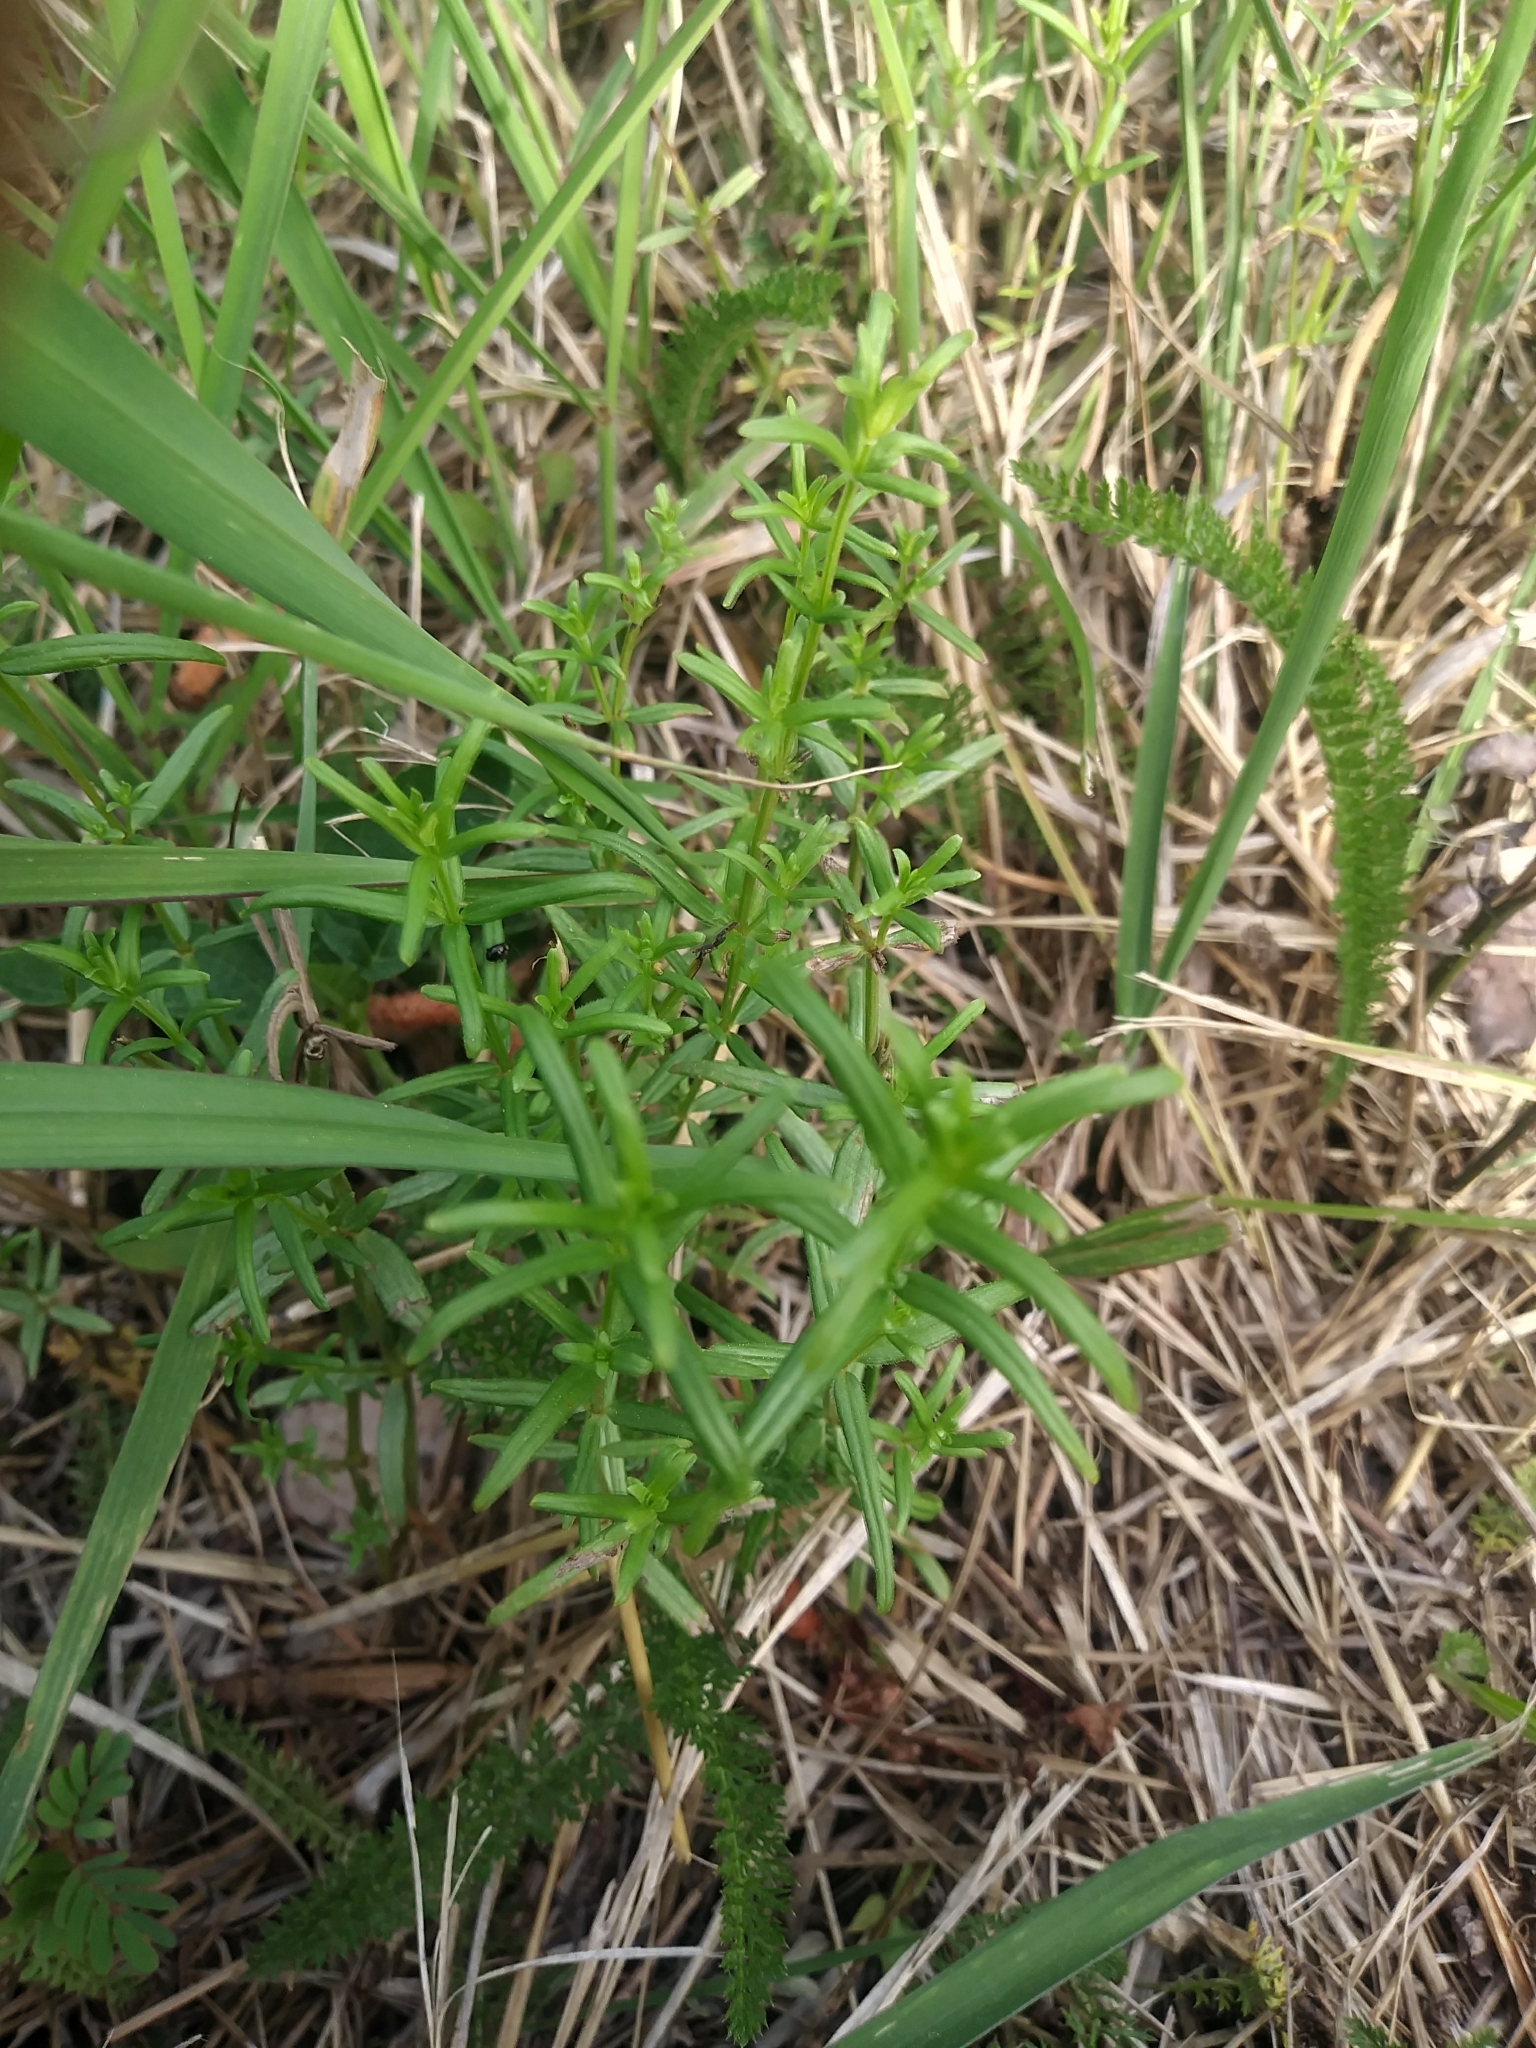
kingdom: Plantae
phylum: Tracheophyta
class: Magnoliopsida
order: Gentianales
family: Rubiaceae
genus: Galium
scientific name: Galium boreale
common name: Northern bedstraw
